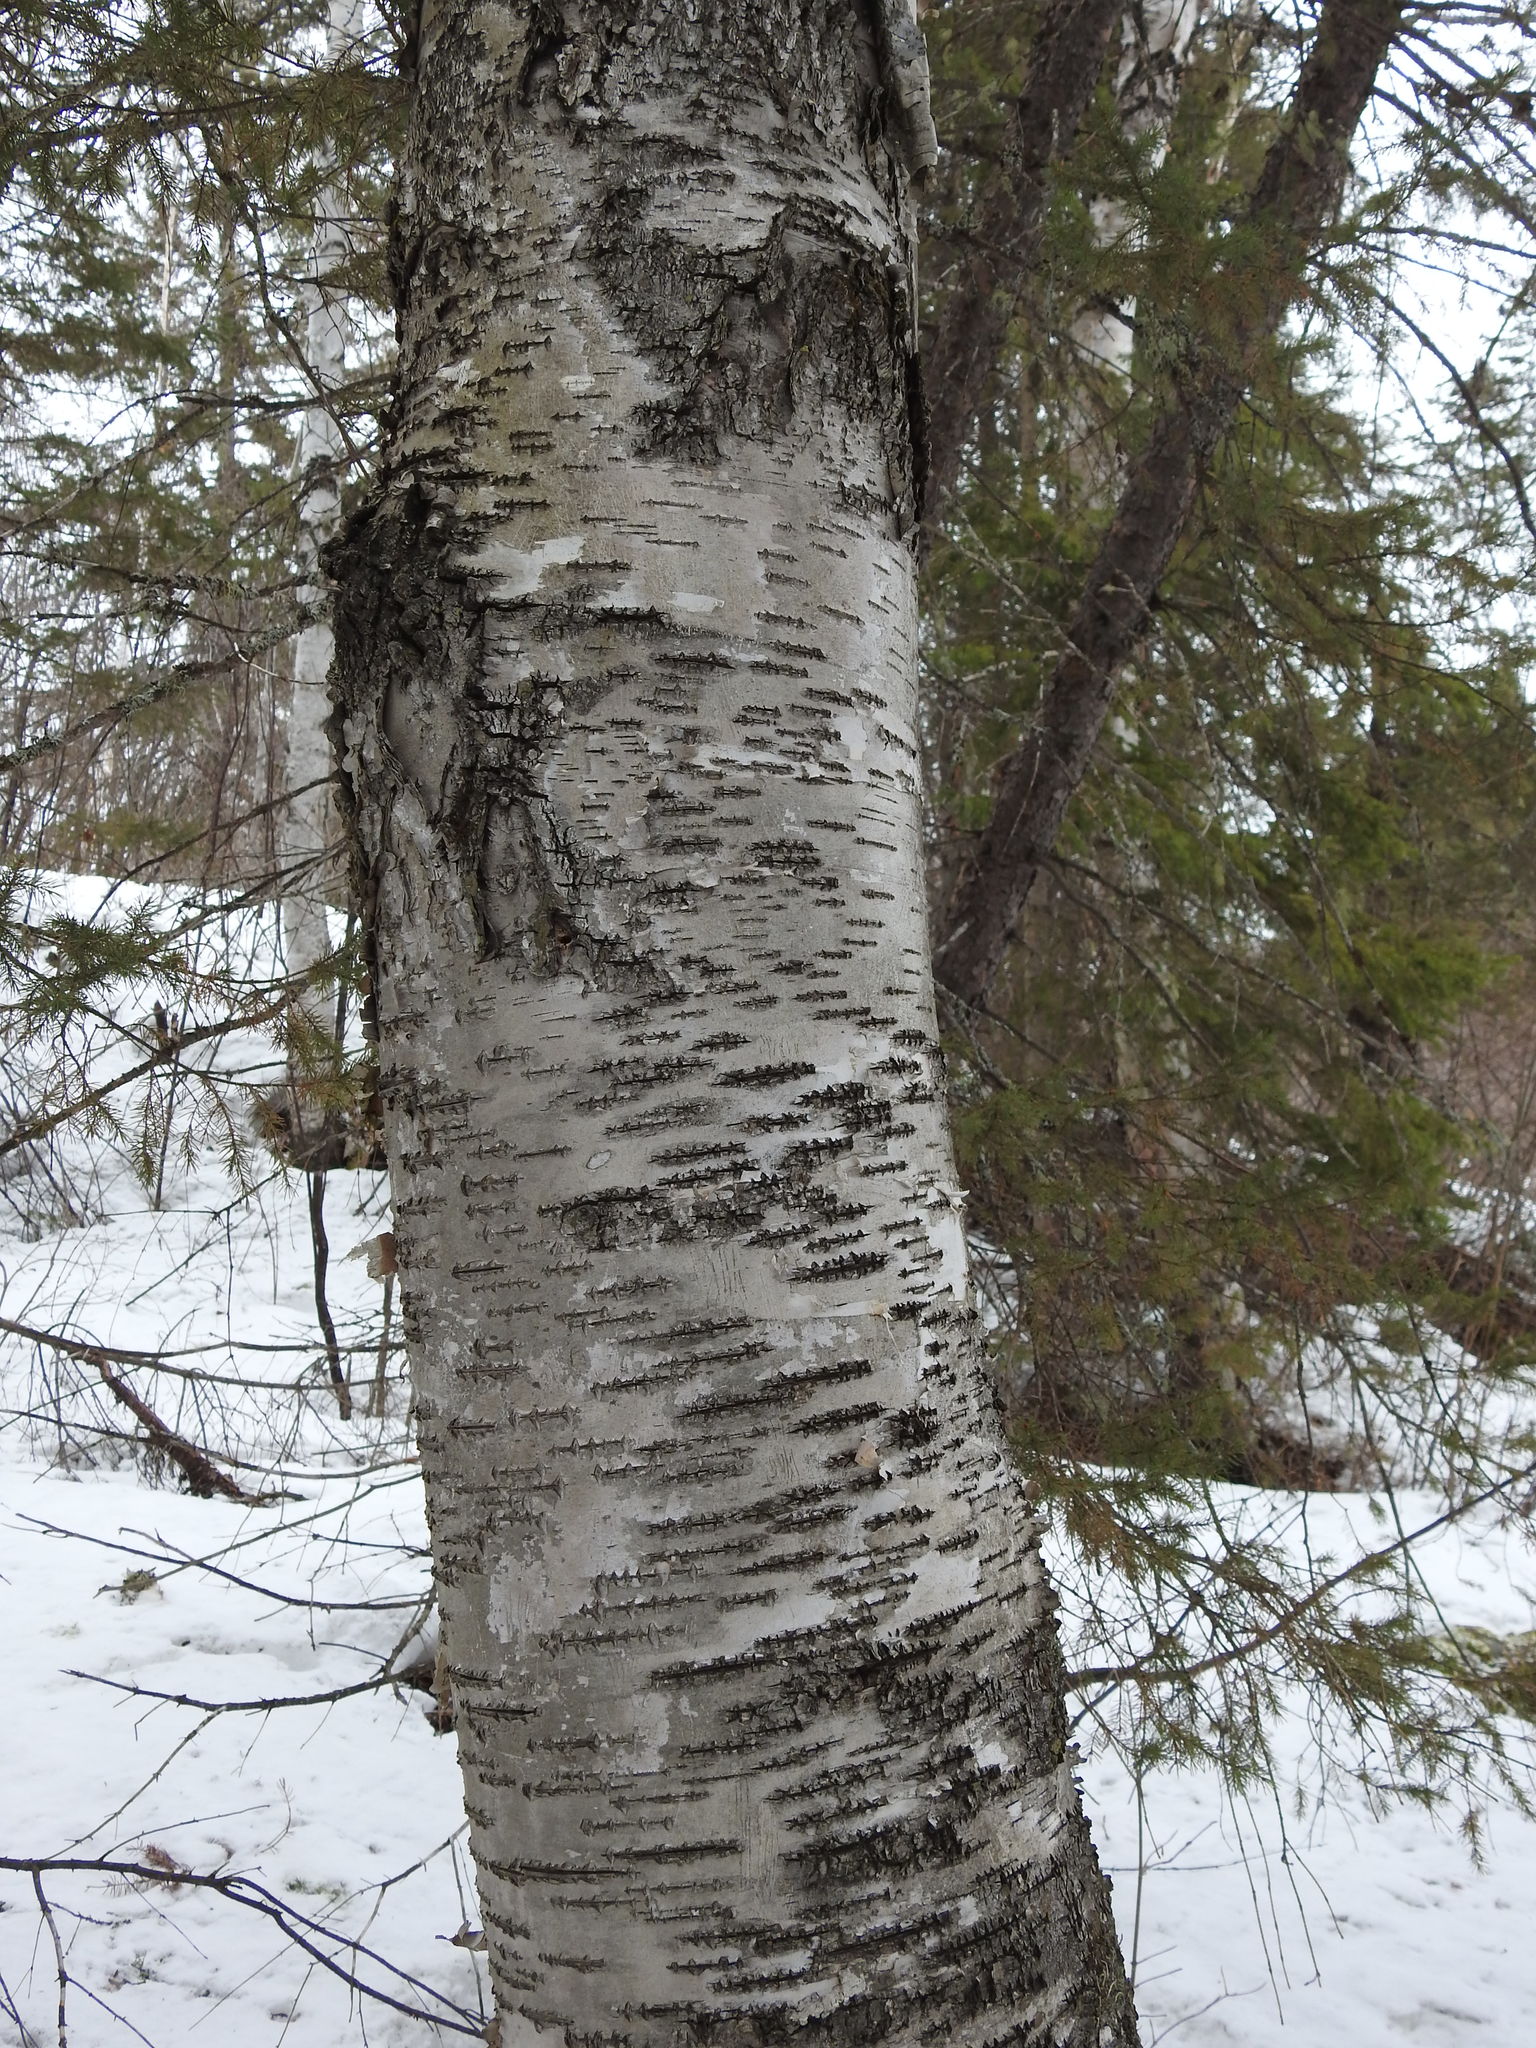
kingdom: Plantae
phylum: Tracheophyta
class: Magnoliopsida
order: Fagales
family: Betulaceae
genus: Betula
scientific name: Betula papyrifera
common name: Paper birch
